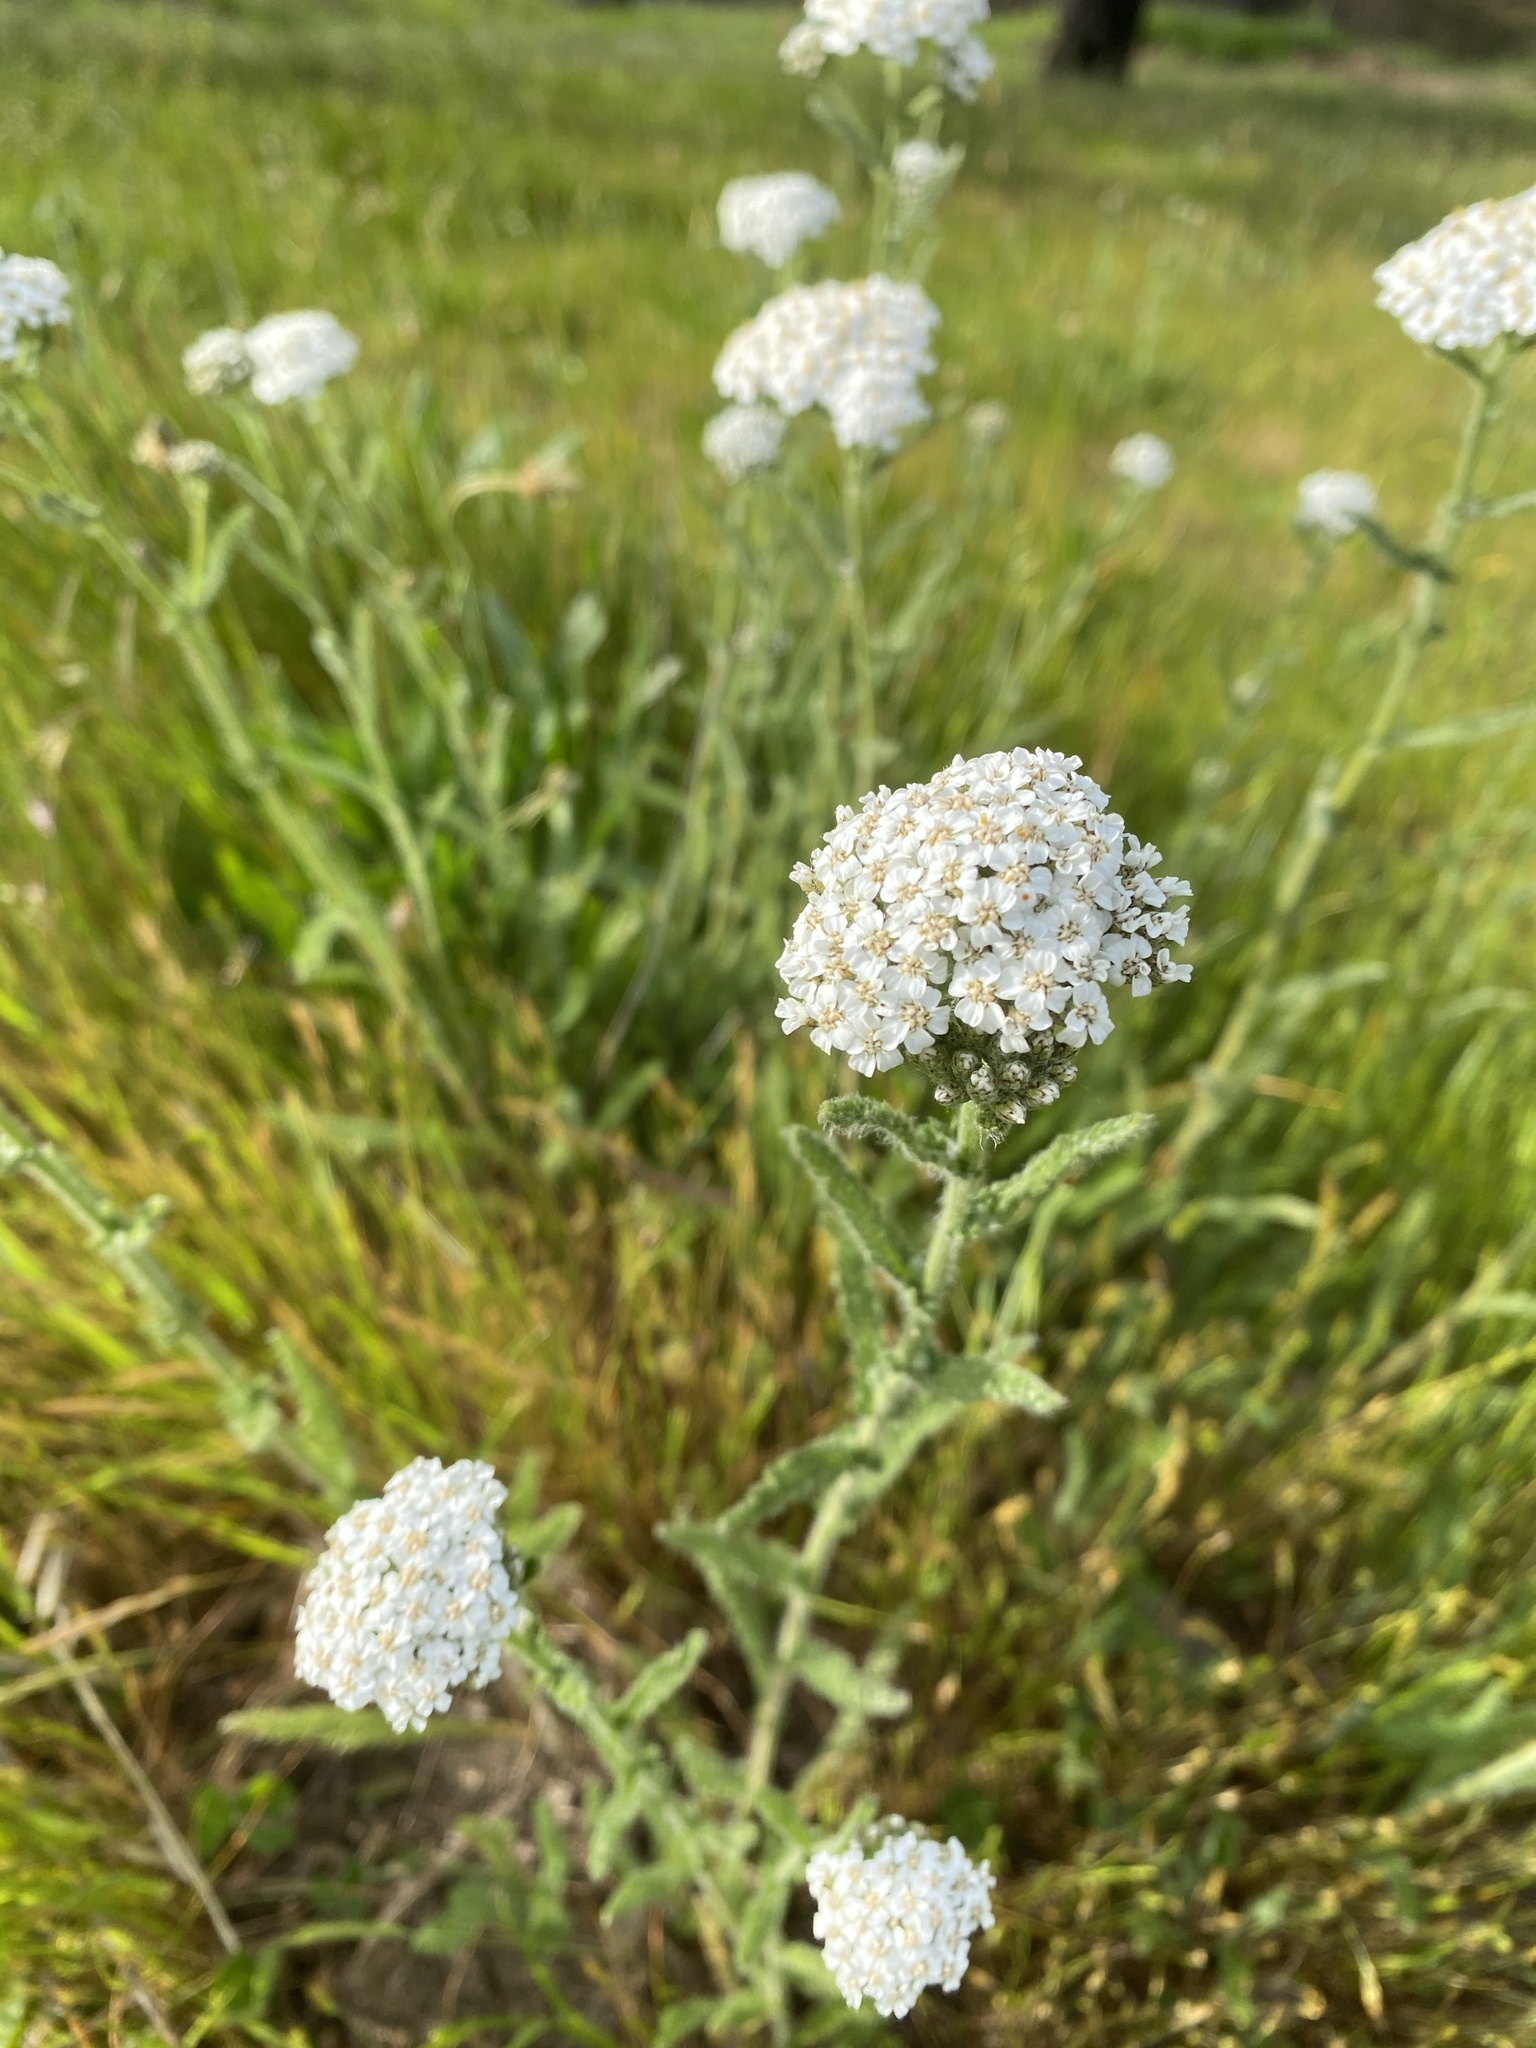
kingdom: Plantae
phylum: Tracheophyta
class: Magnoliopsida
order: Asterales
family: Asteraceae
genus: Achillea
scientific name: Achillea millefolium
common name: Yarrow
